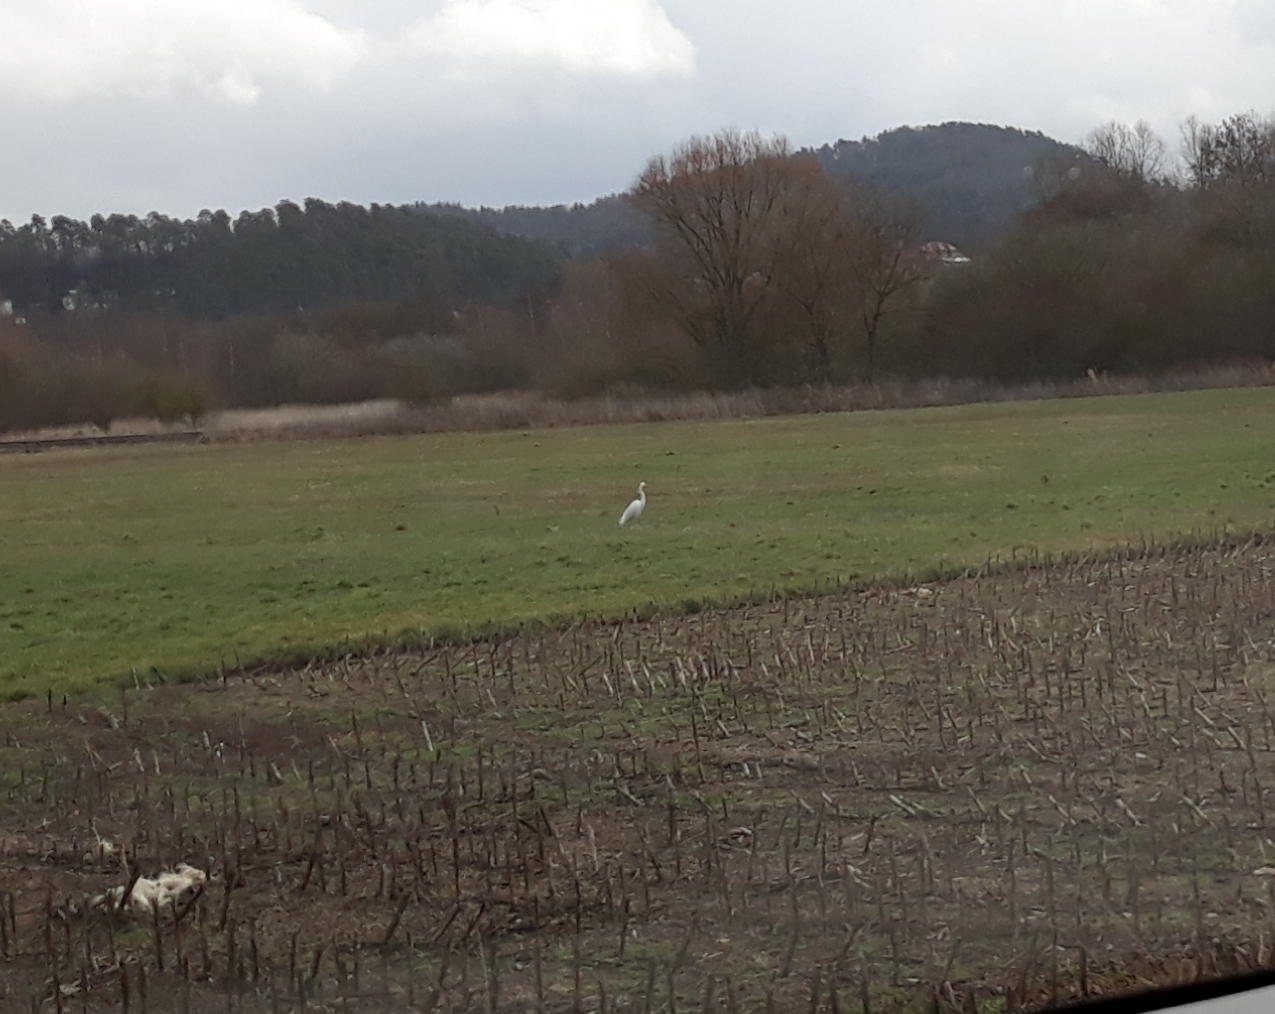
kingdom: Animalia
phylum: Chordata
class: Aves
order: Pelecaniformes
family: Ardeidae
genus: Ardea
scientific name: Ardea alba
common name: Great egret
